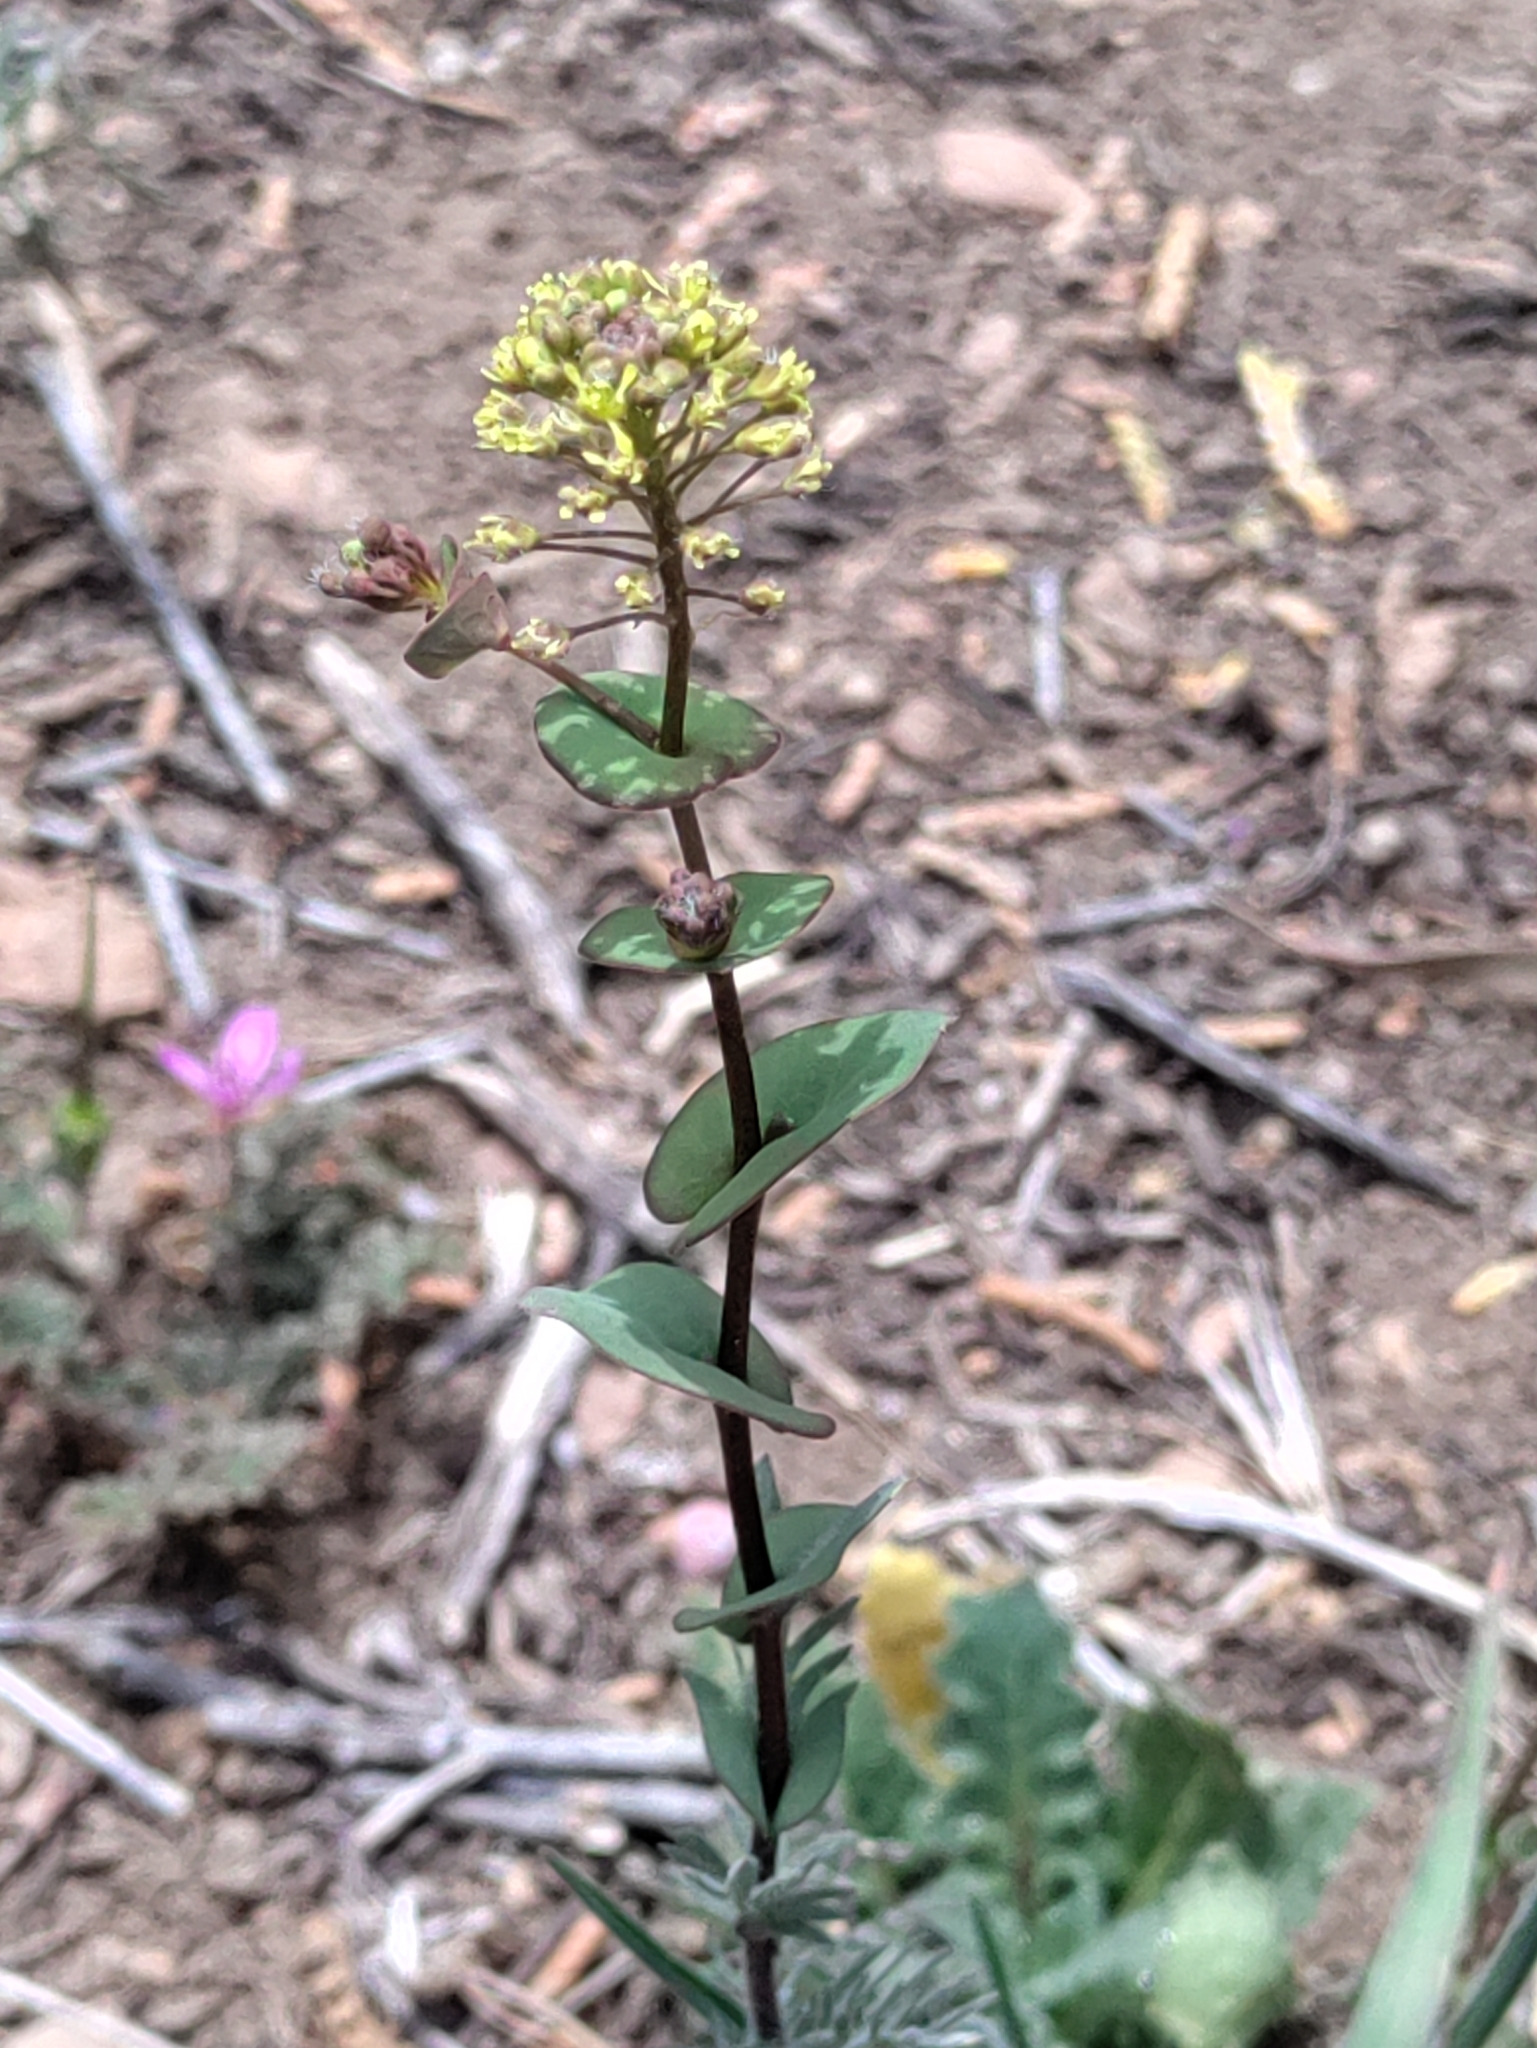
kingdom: Plantae
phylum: Tracheophyta
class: Magnoliopsida
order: Brassicales
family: Brassicaceae
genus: Lepidium
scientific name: Lepidium perfoliatum
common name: Perfoliate pepperwort
